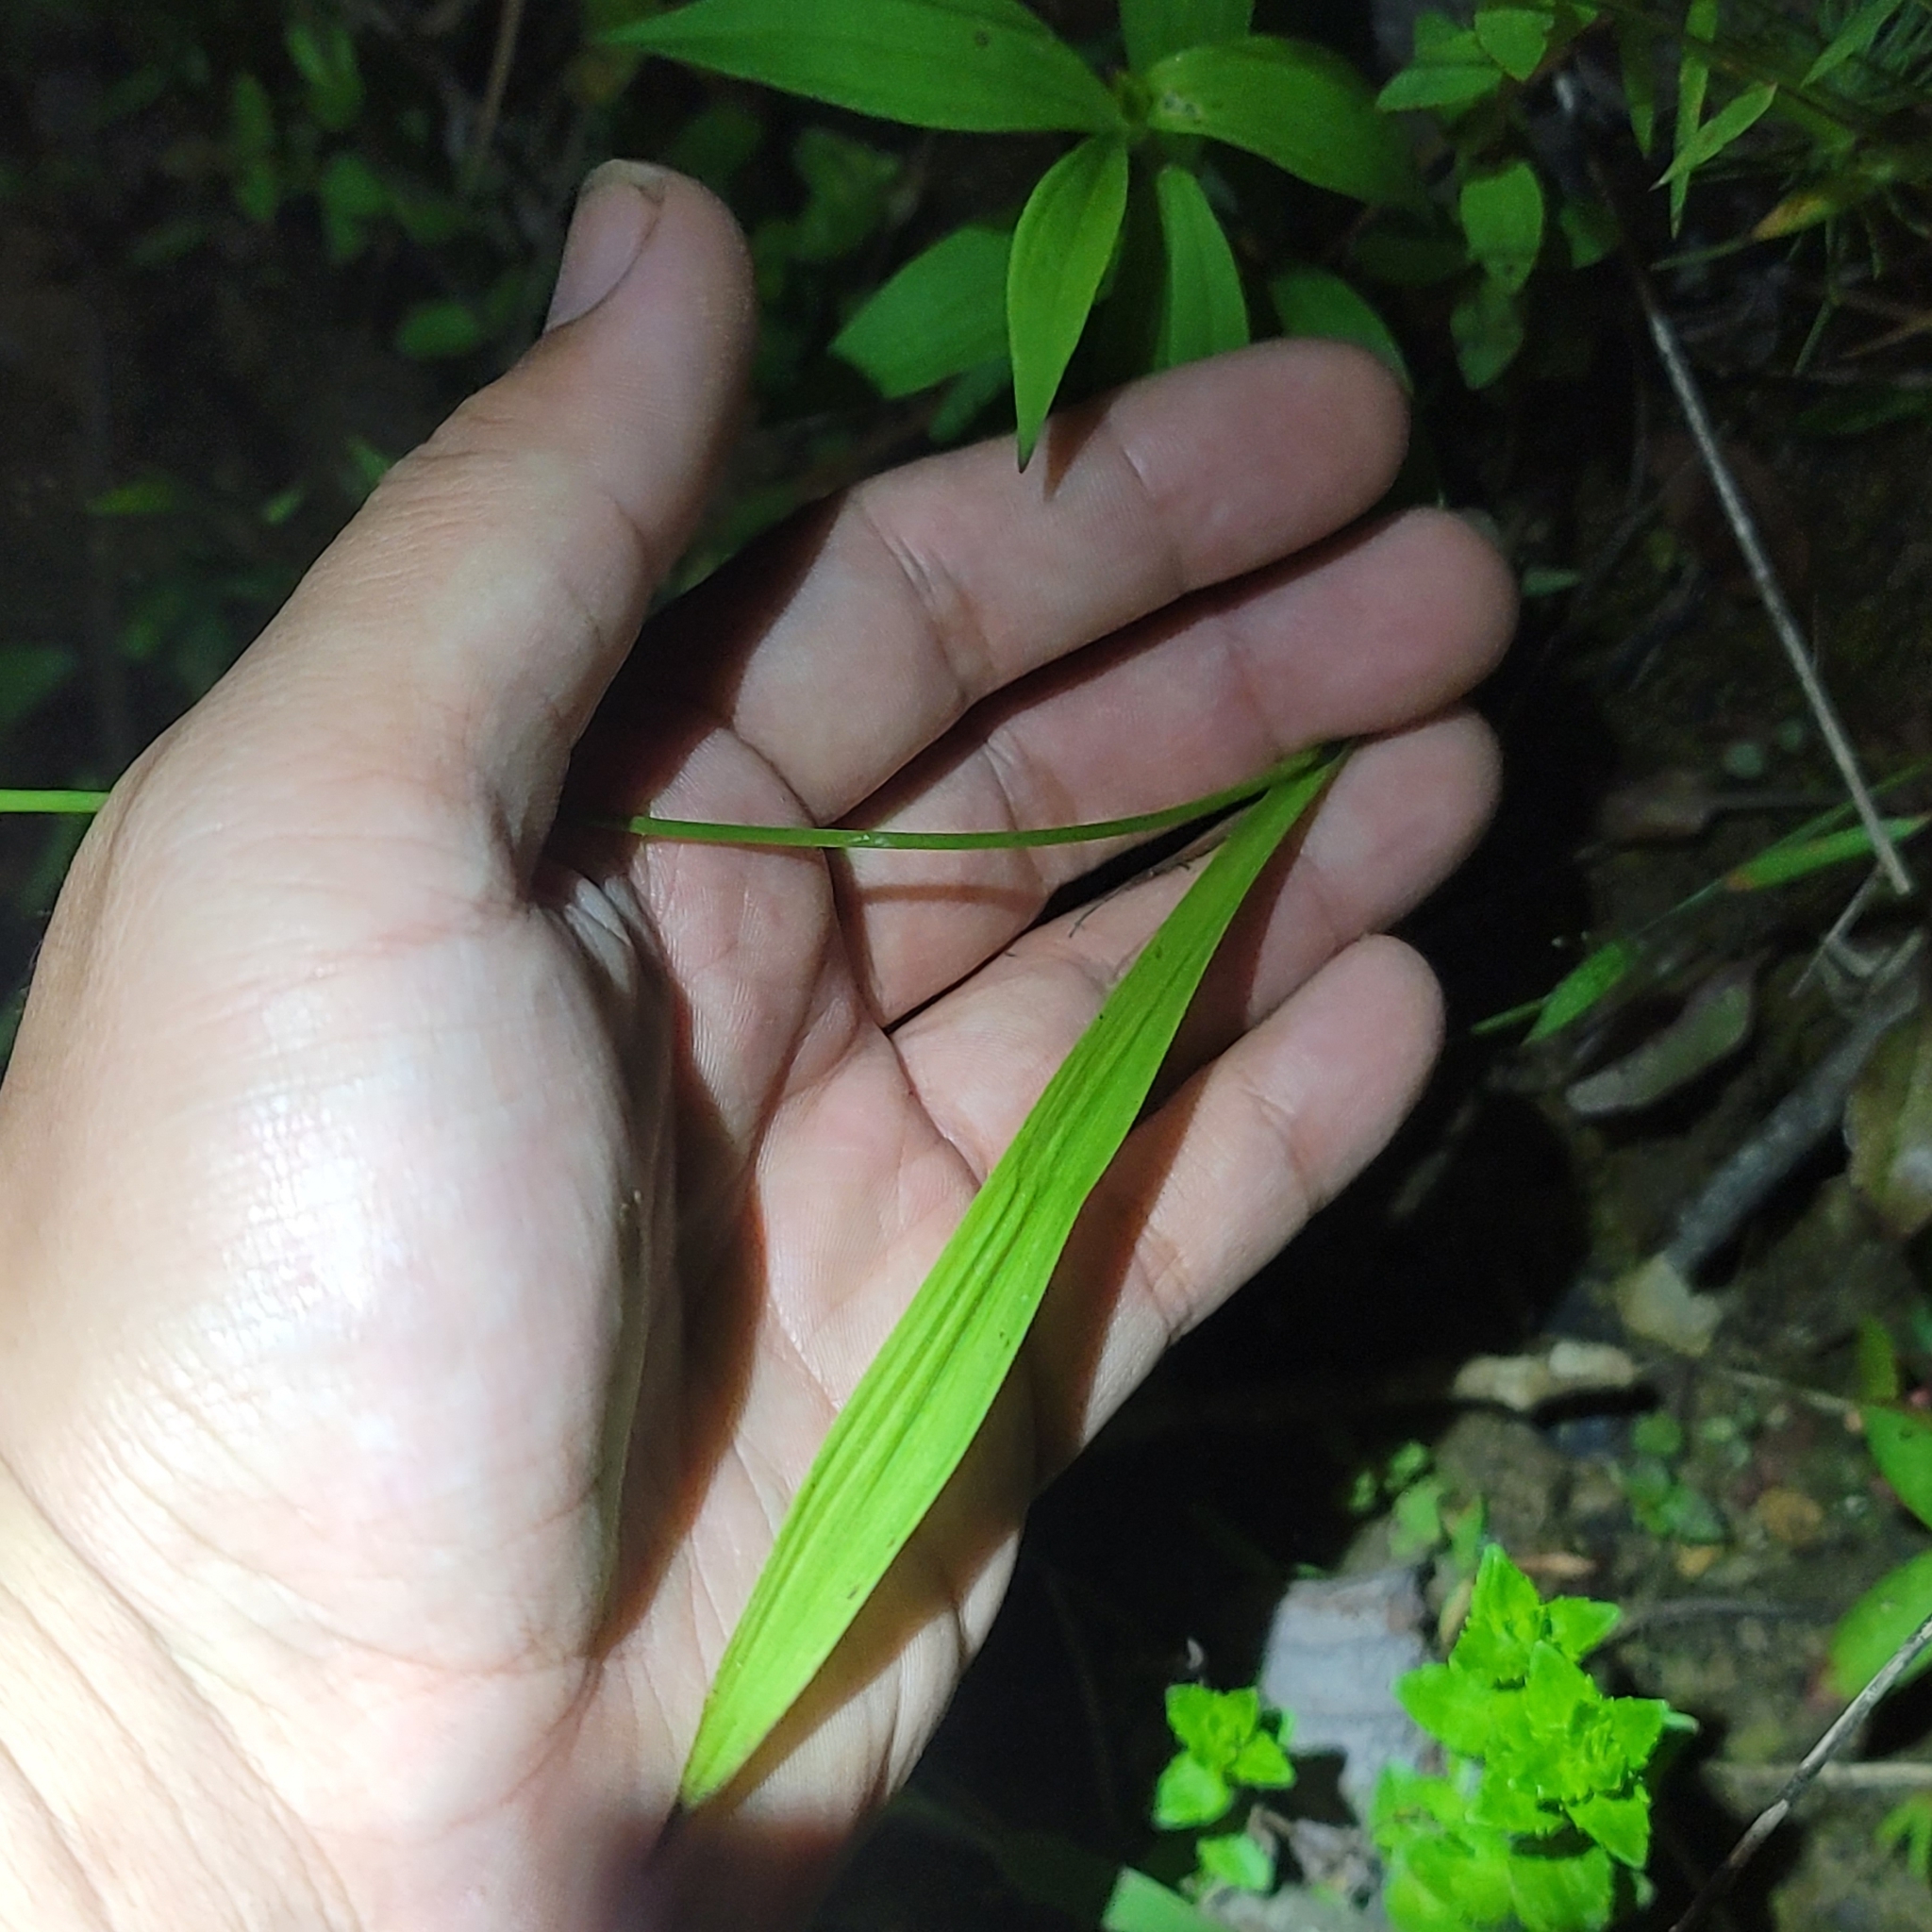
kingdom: Plantae
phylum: Tracheophyta
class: Liliopsida
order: Asparagales
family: Orchidaceae
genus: Calopogon
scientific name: Calopogon tuberosus
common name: Grass-pink
